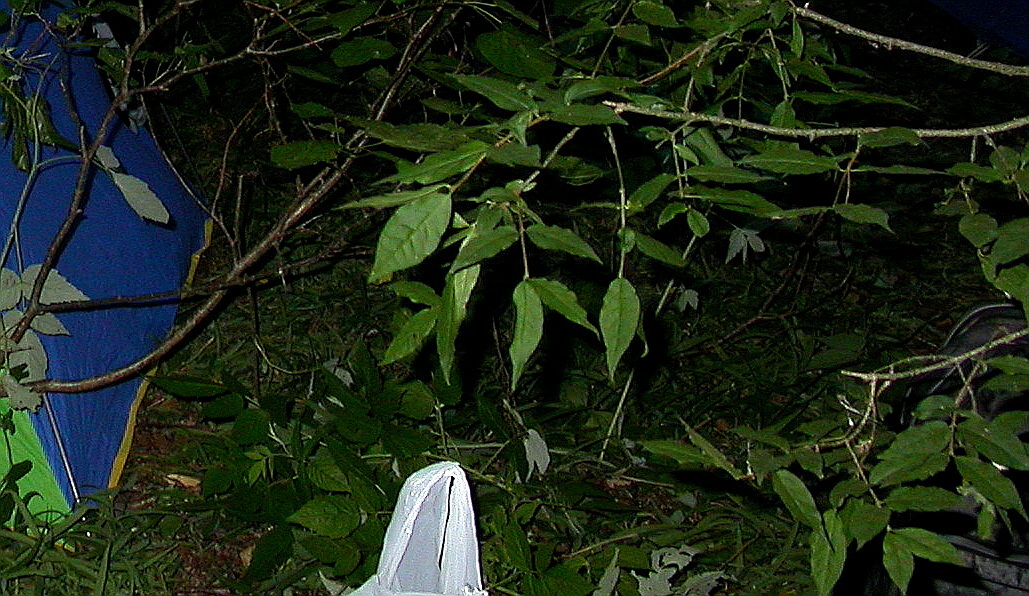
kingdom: Plantae
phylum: Tracheophyta
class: Magnoliopsida
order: Celastrales
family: Celastraceae
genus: Euonymus
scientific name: Euonymus verrucosus
